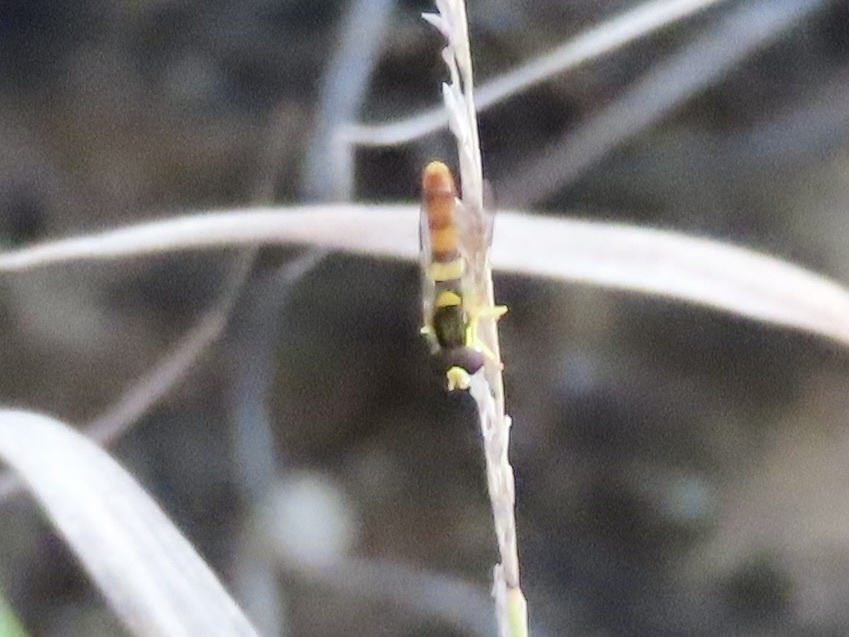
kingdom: Animalia
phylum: Arthropoda
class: Insecta
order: Diptera
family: Syrphidae
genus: Sphaerophoria
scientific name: Sphaerophoria contigua
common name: Tufted globetail
